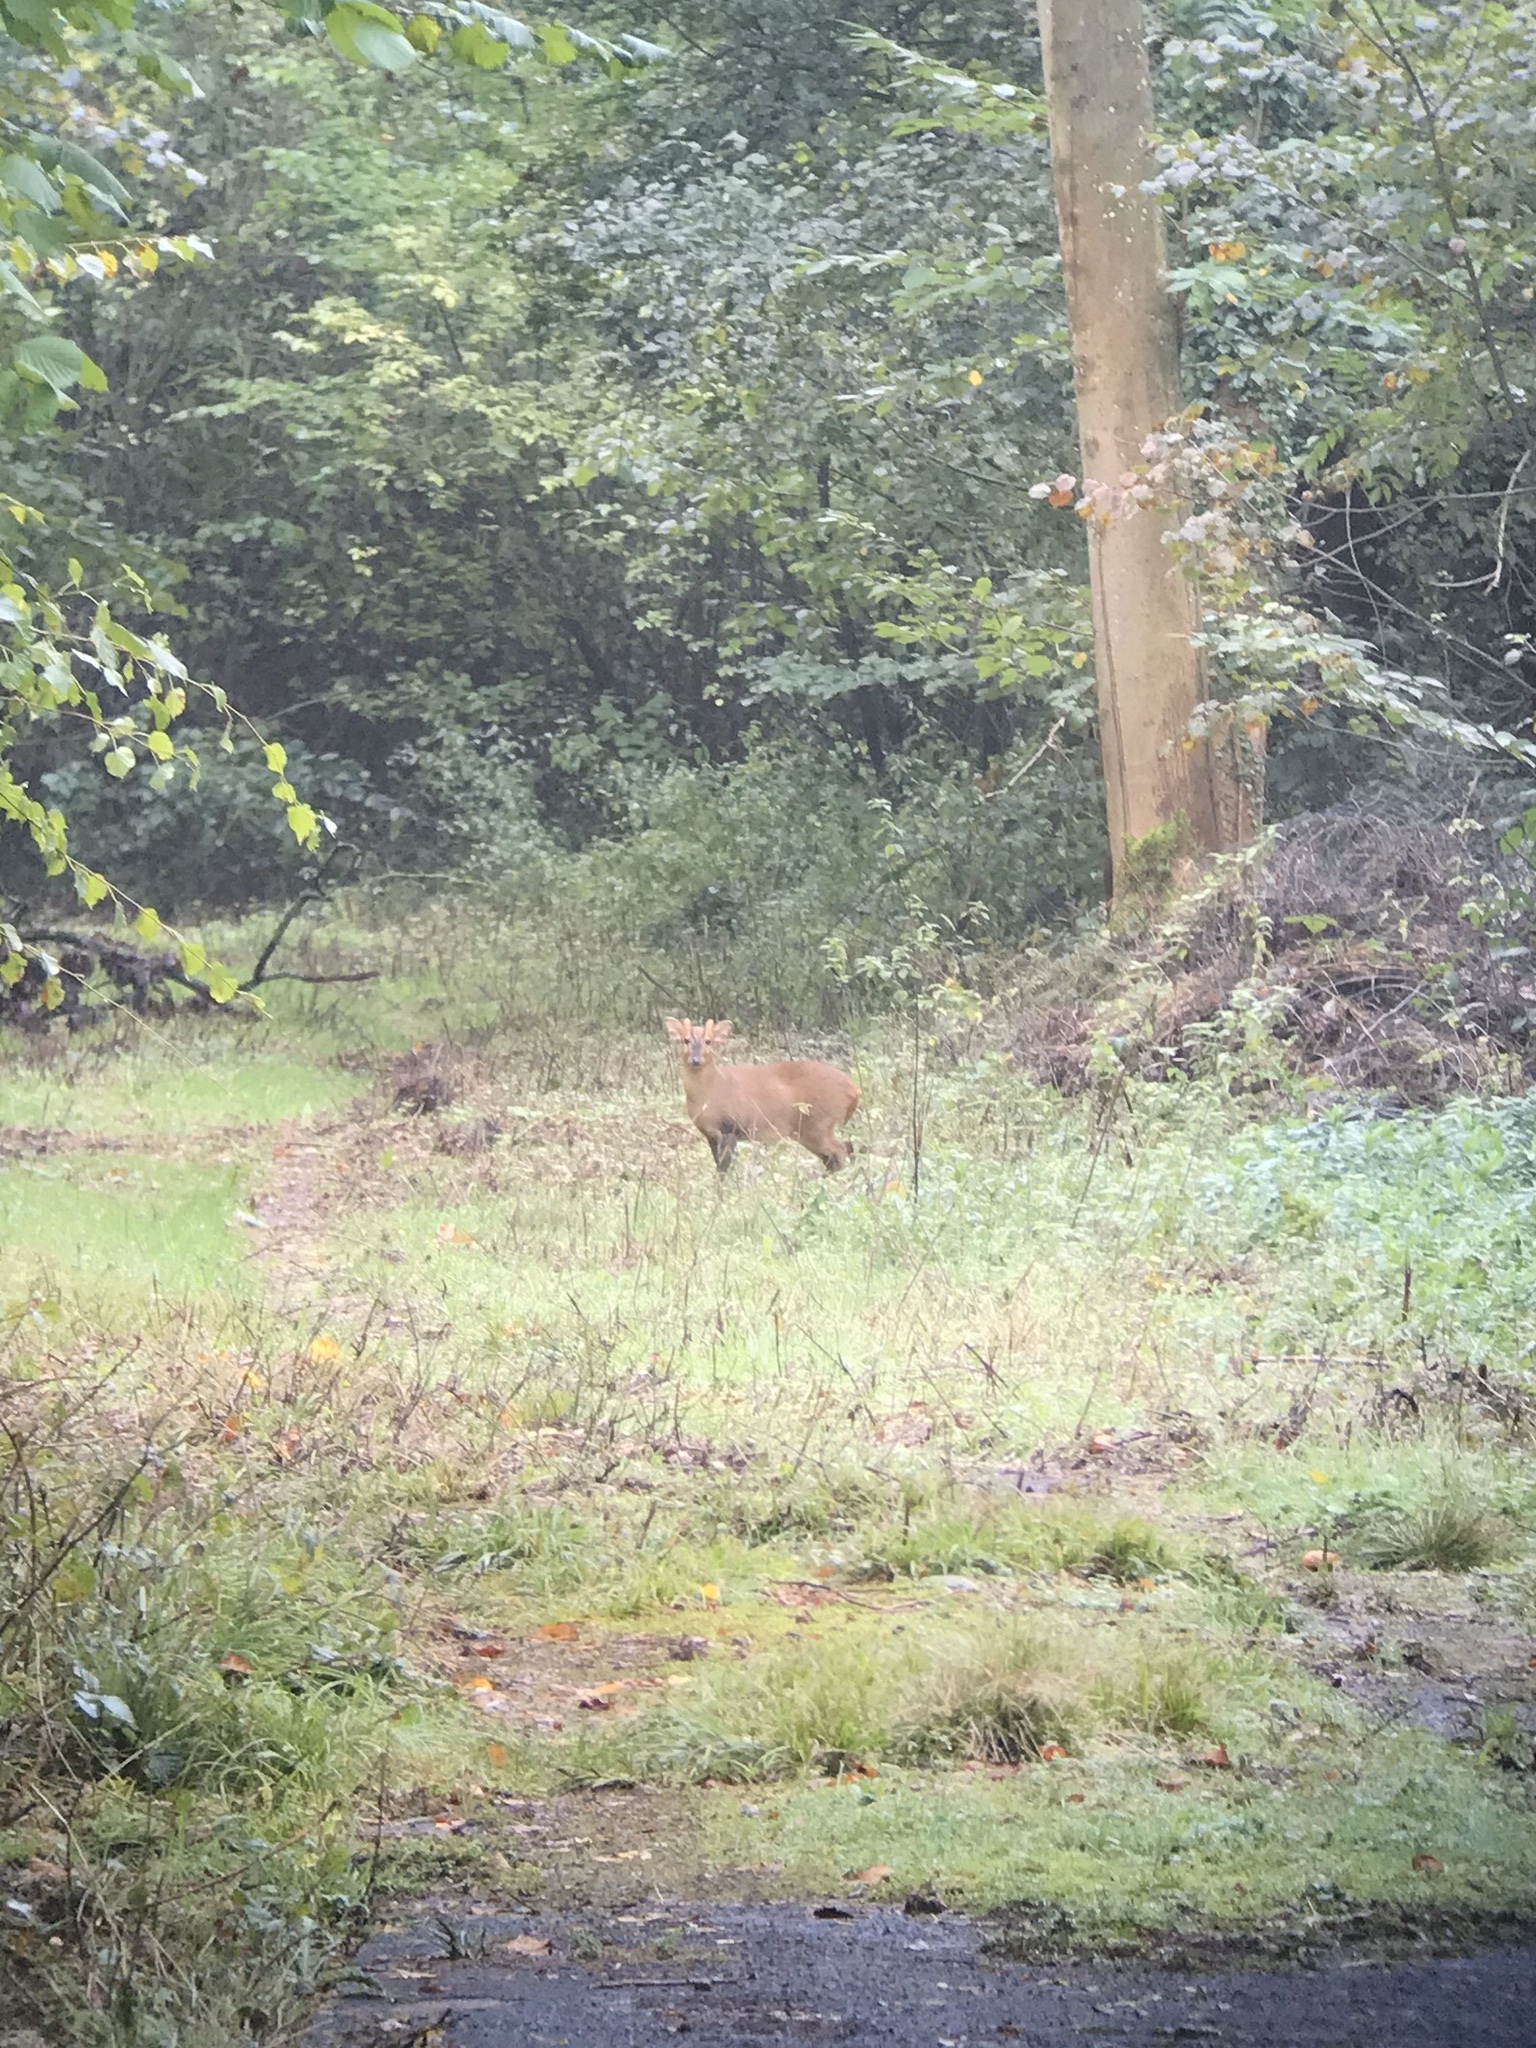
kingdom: Animalia
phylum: Chordata
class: Mammalia
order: Artiodactyla
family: Cervidae
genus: Muntiacus
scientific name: Muntiacus reevesi
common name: Reeves' muntjac
